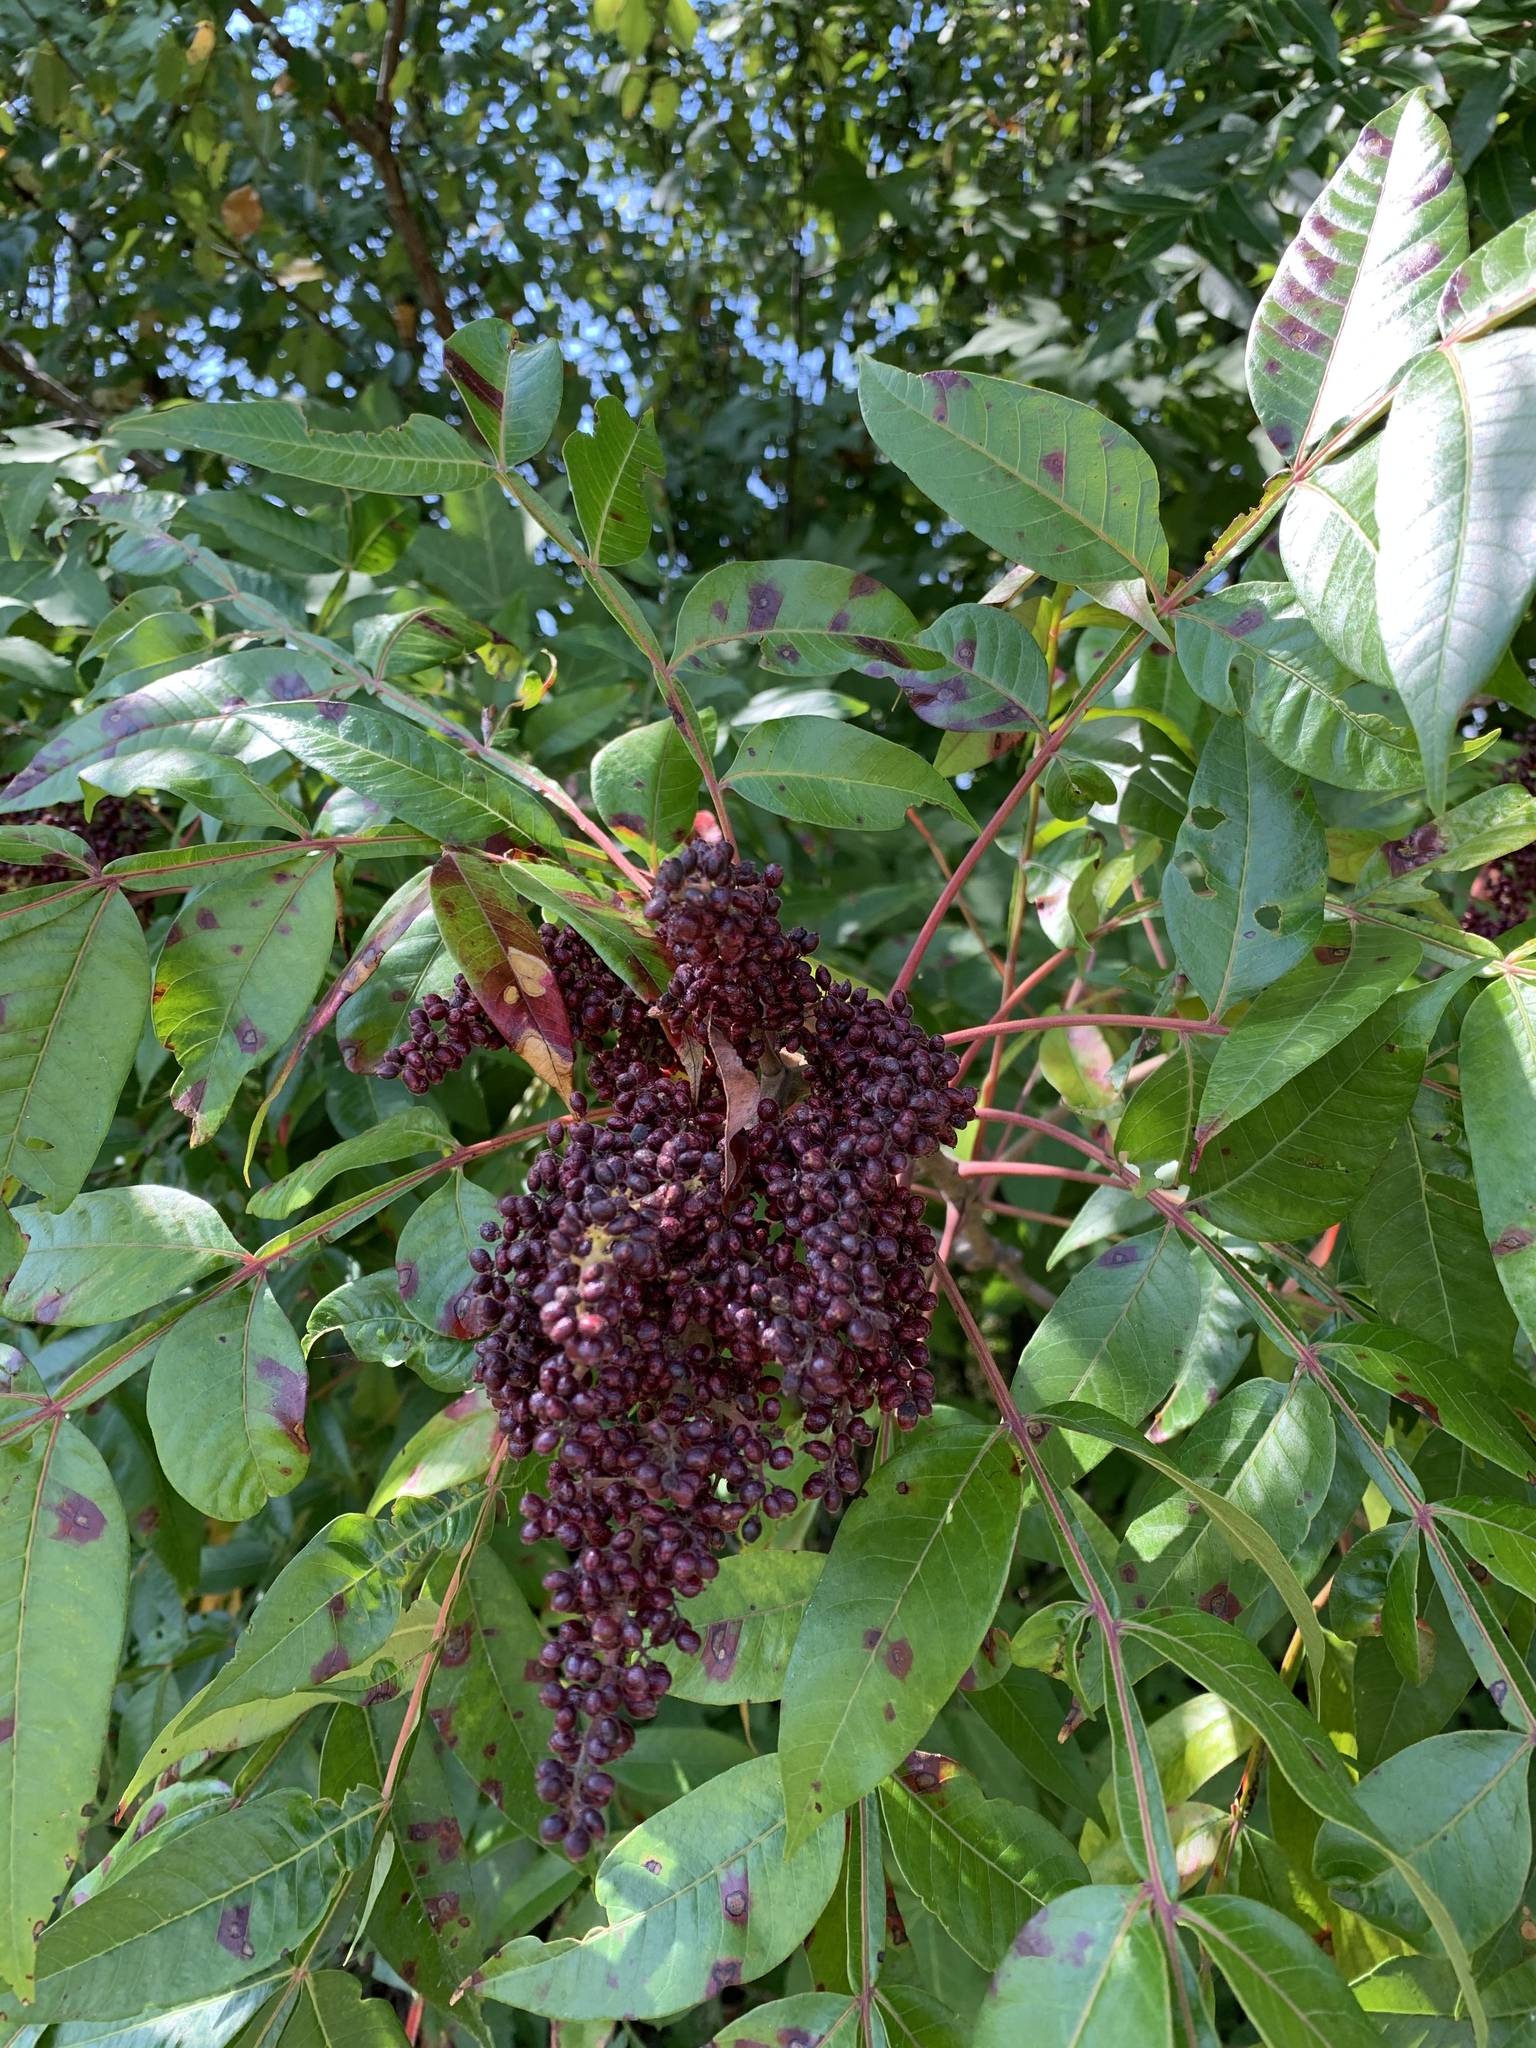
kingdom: Plantae
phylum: Tracheophyta
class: Magnoliopsida
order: Sapindales
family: Anacardiaceae
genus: Rhus
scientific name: Rhus copallina
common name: Shining sumac
